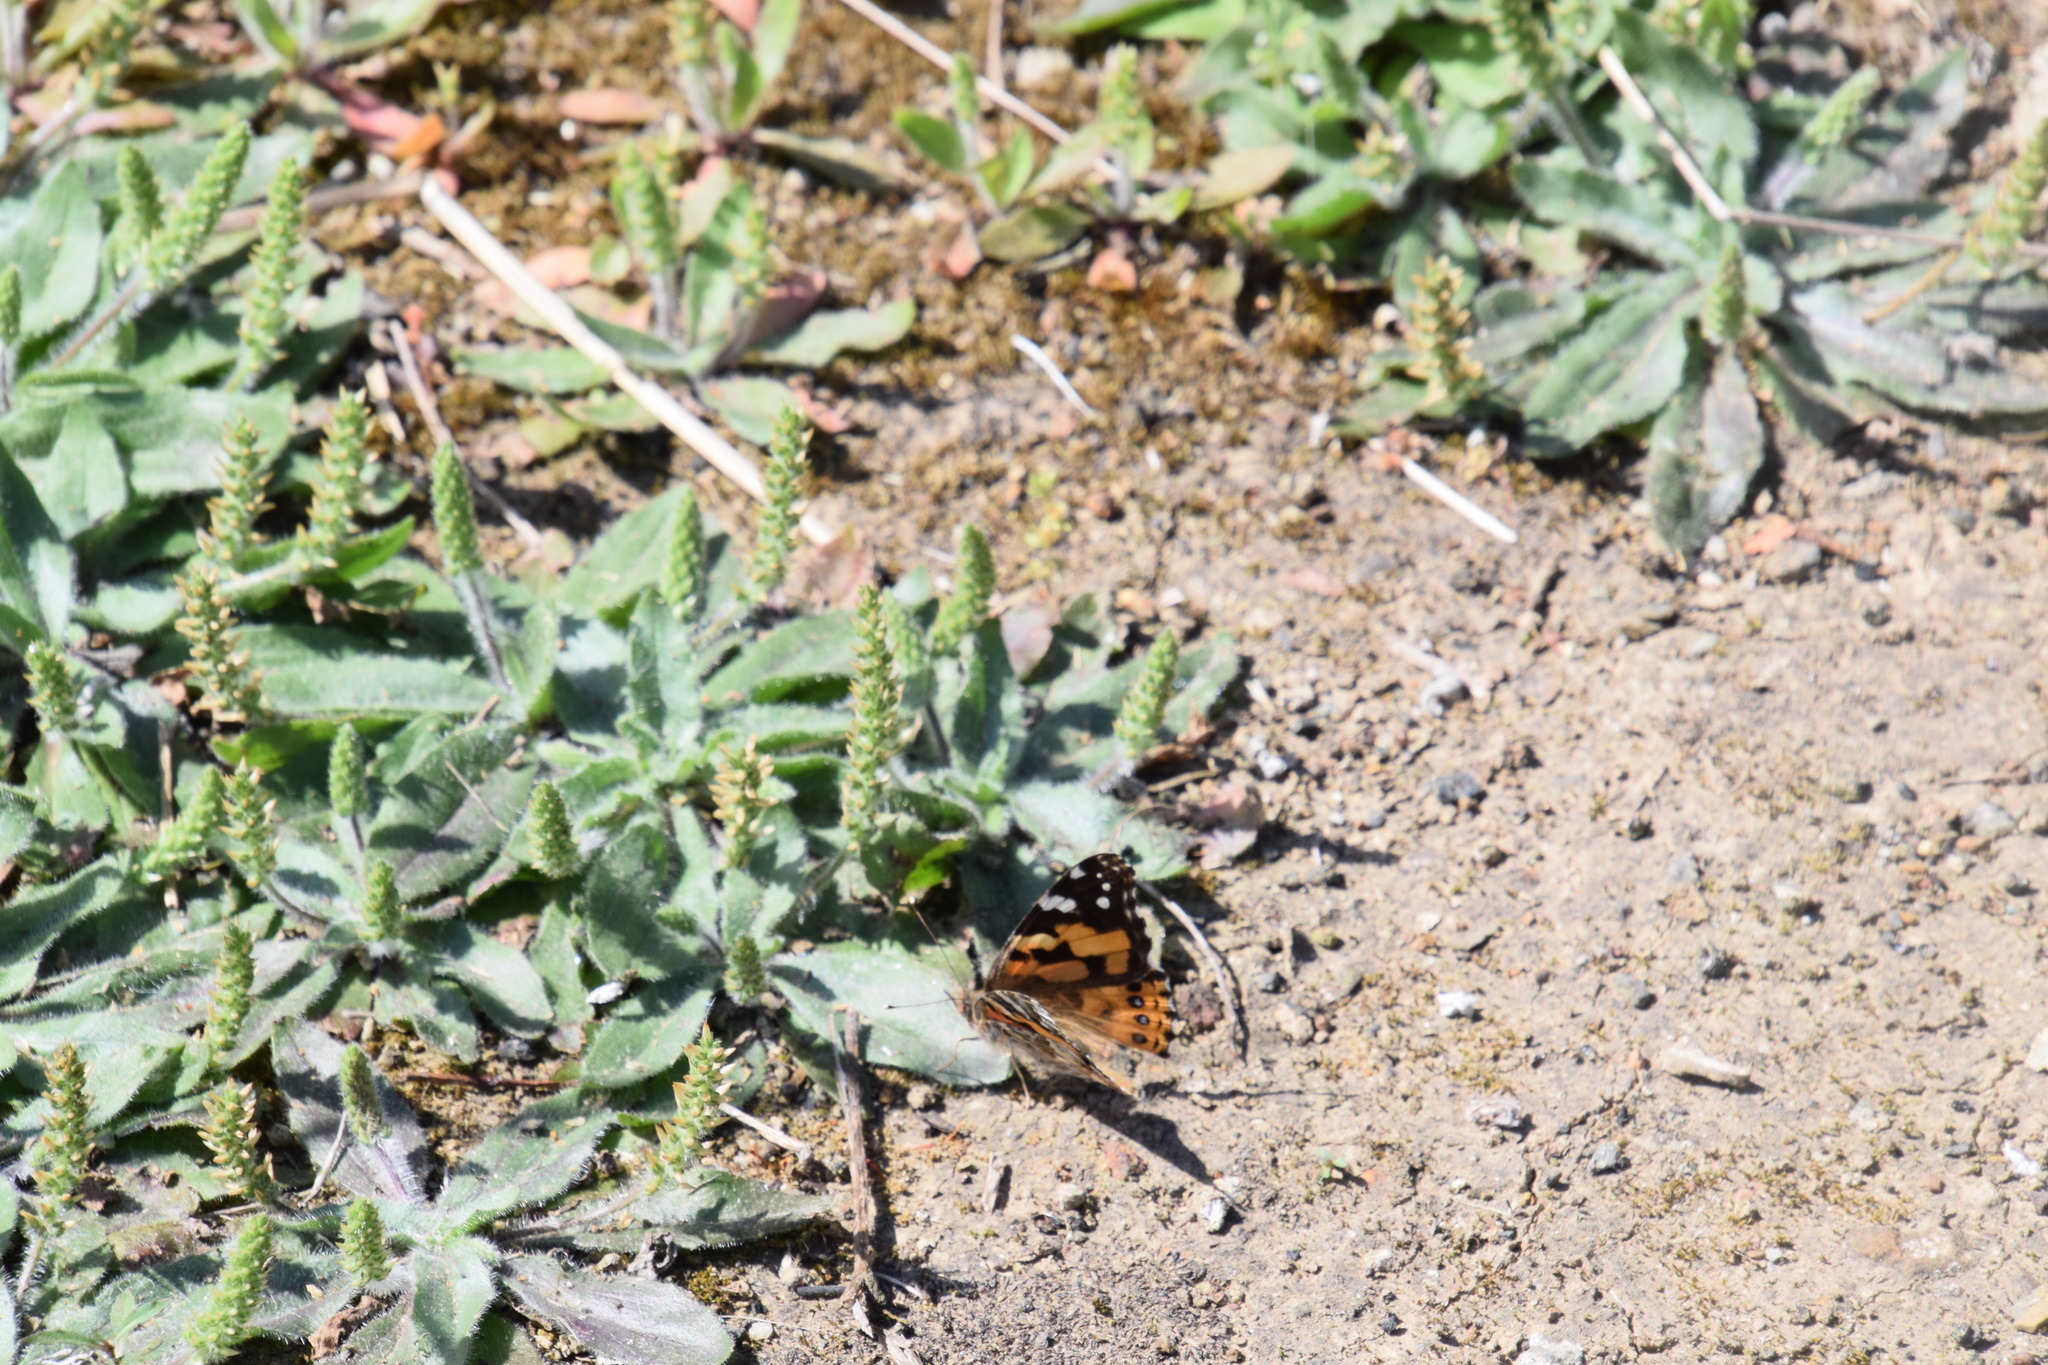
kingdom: Animalia
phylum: Arthropoda
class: Insecta
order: Lepidoptera
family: Nymphalidae
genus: Vanessa
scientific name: Vanessa kershawi
